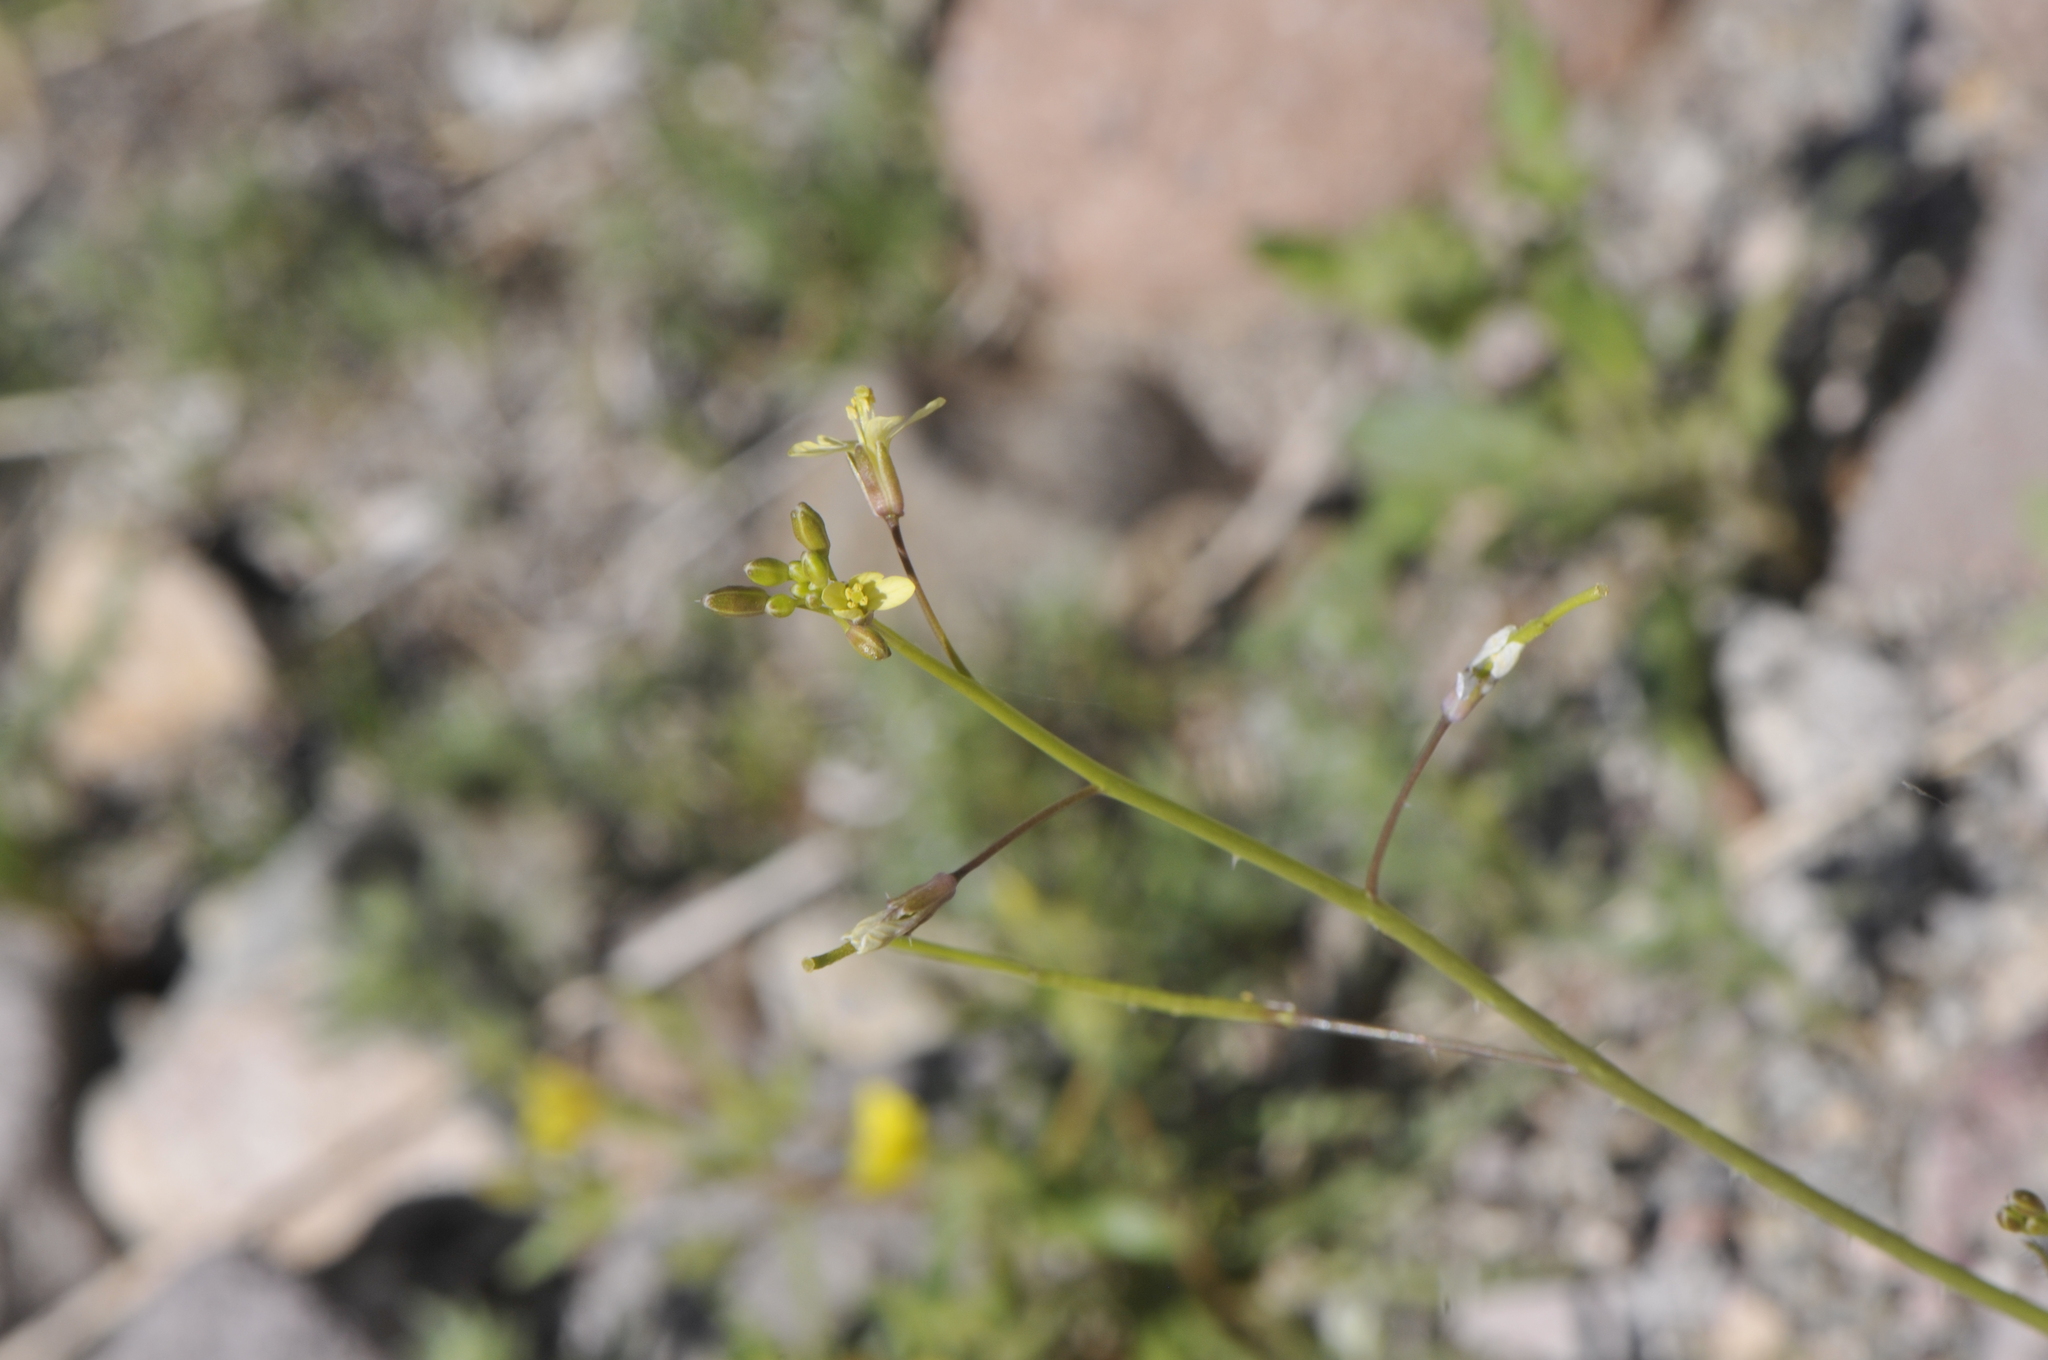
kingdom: Plantae
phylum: Tracheophyta
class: Magnoliopsida
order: Brassicales
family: Brassicaceae
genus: Brassica
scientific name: Brassica tournefortii
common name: Pale cabbage
